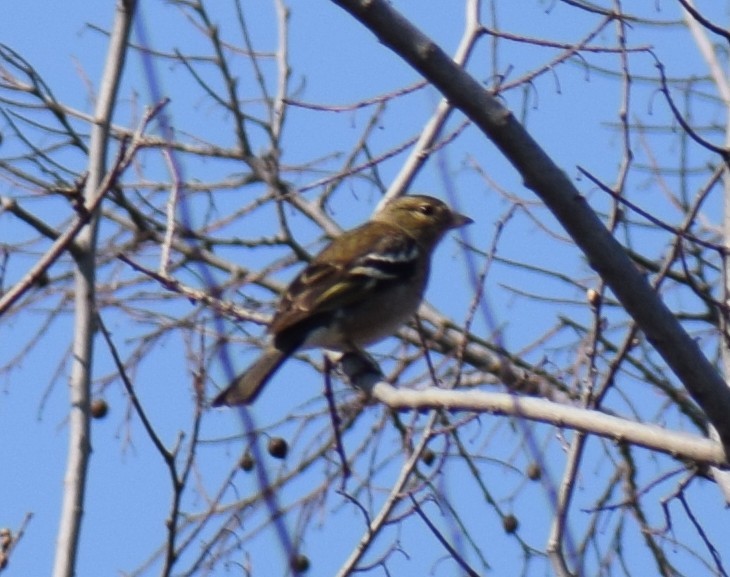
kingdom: Animalia
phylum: Chordata
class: Aves
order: Passeriformes
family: Fringillidae
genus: Fringilla
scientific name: Fringilla coelebs
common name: Common chaffinch
